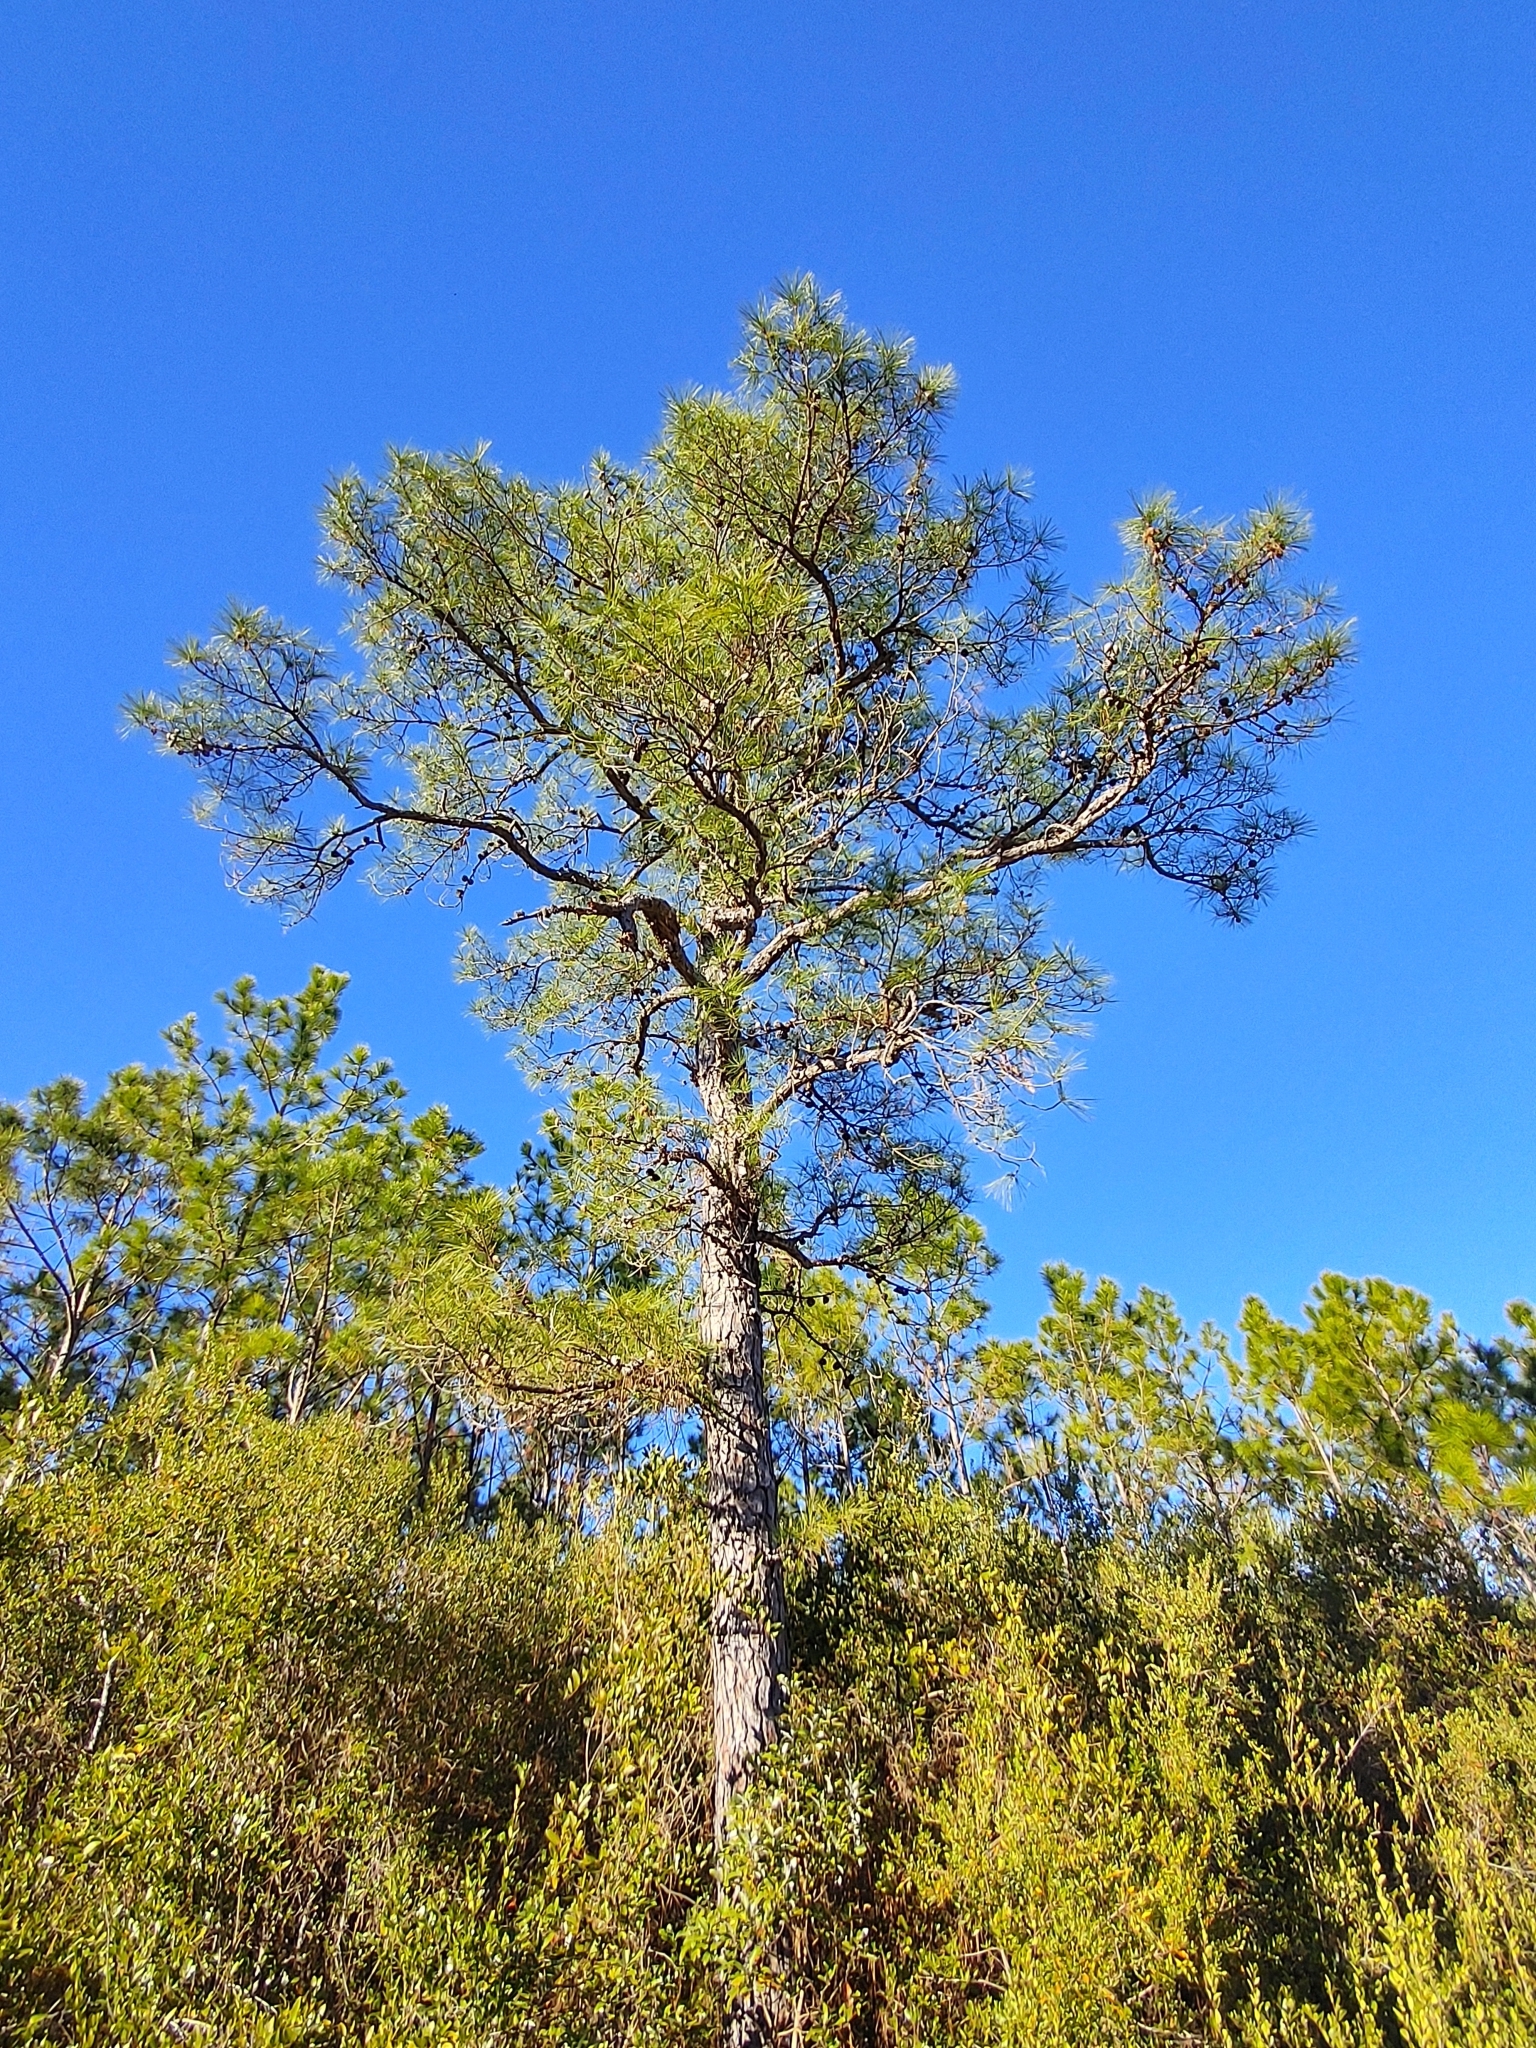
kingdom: Plantae
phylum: Tracheophyta
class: Pinopsida
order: Pinales
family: Pinaceae
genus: Pinus
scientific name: Pinus serotina
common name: Marsh pine
